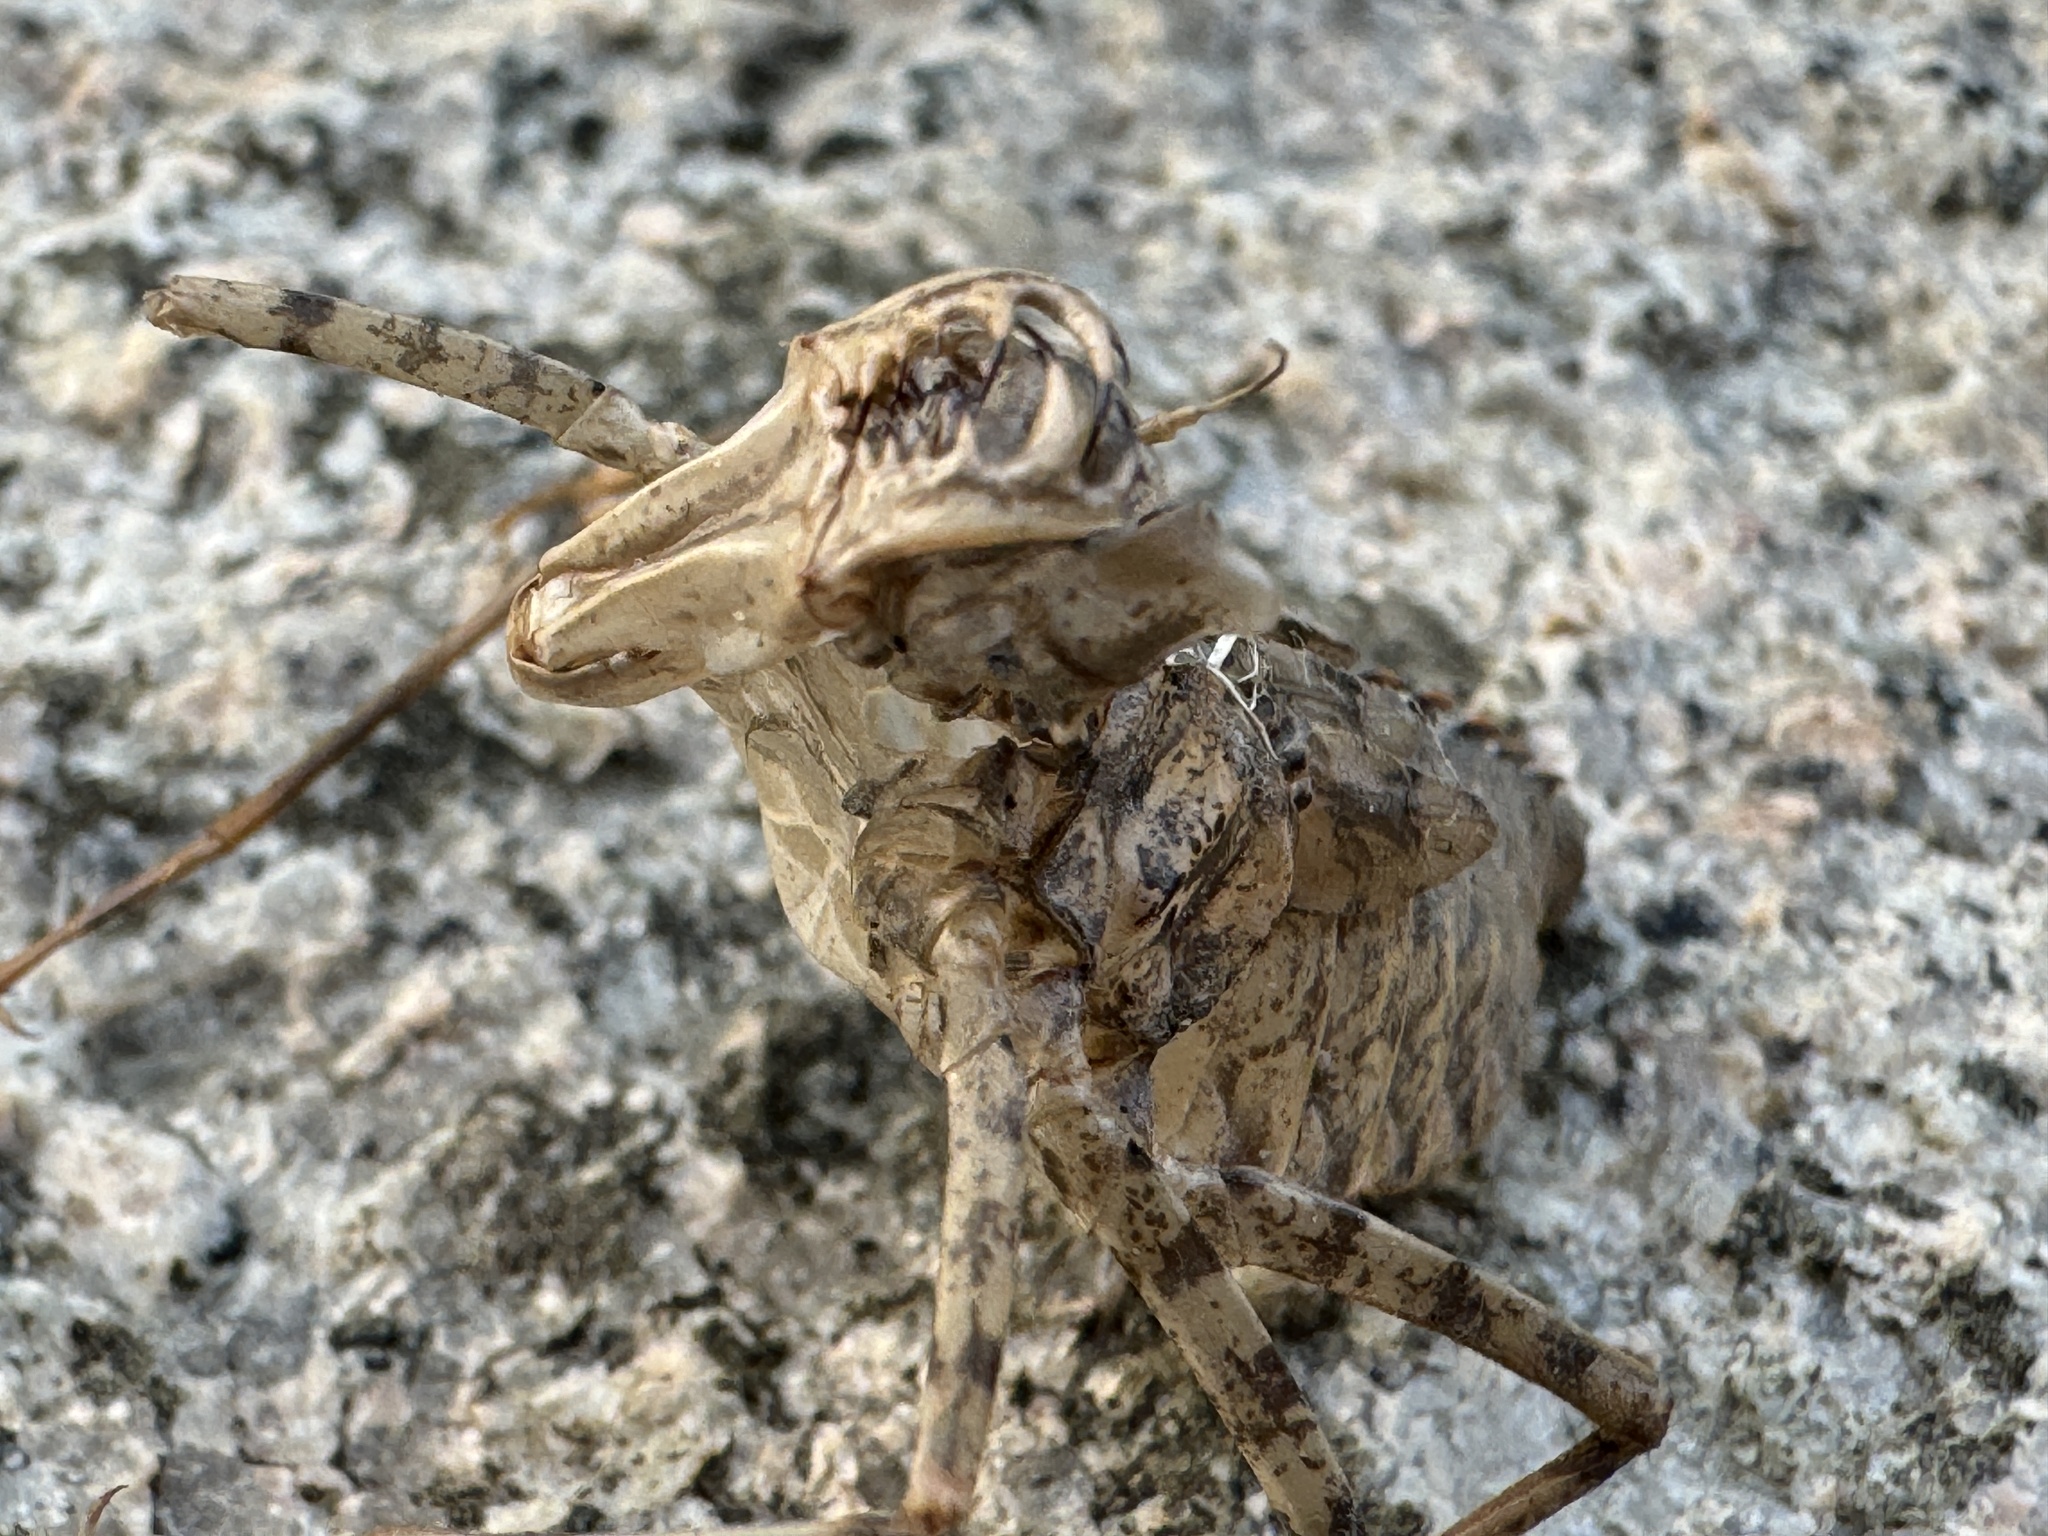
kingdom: Animalia
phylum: Arthropoda
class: Insecta
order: Odonata
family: Macromiidae
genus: Epophthalmia
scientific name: Epophthalmia elegans
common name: Regal pond cruiser
